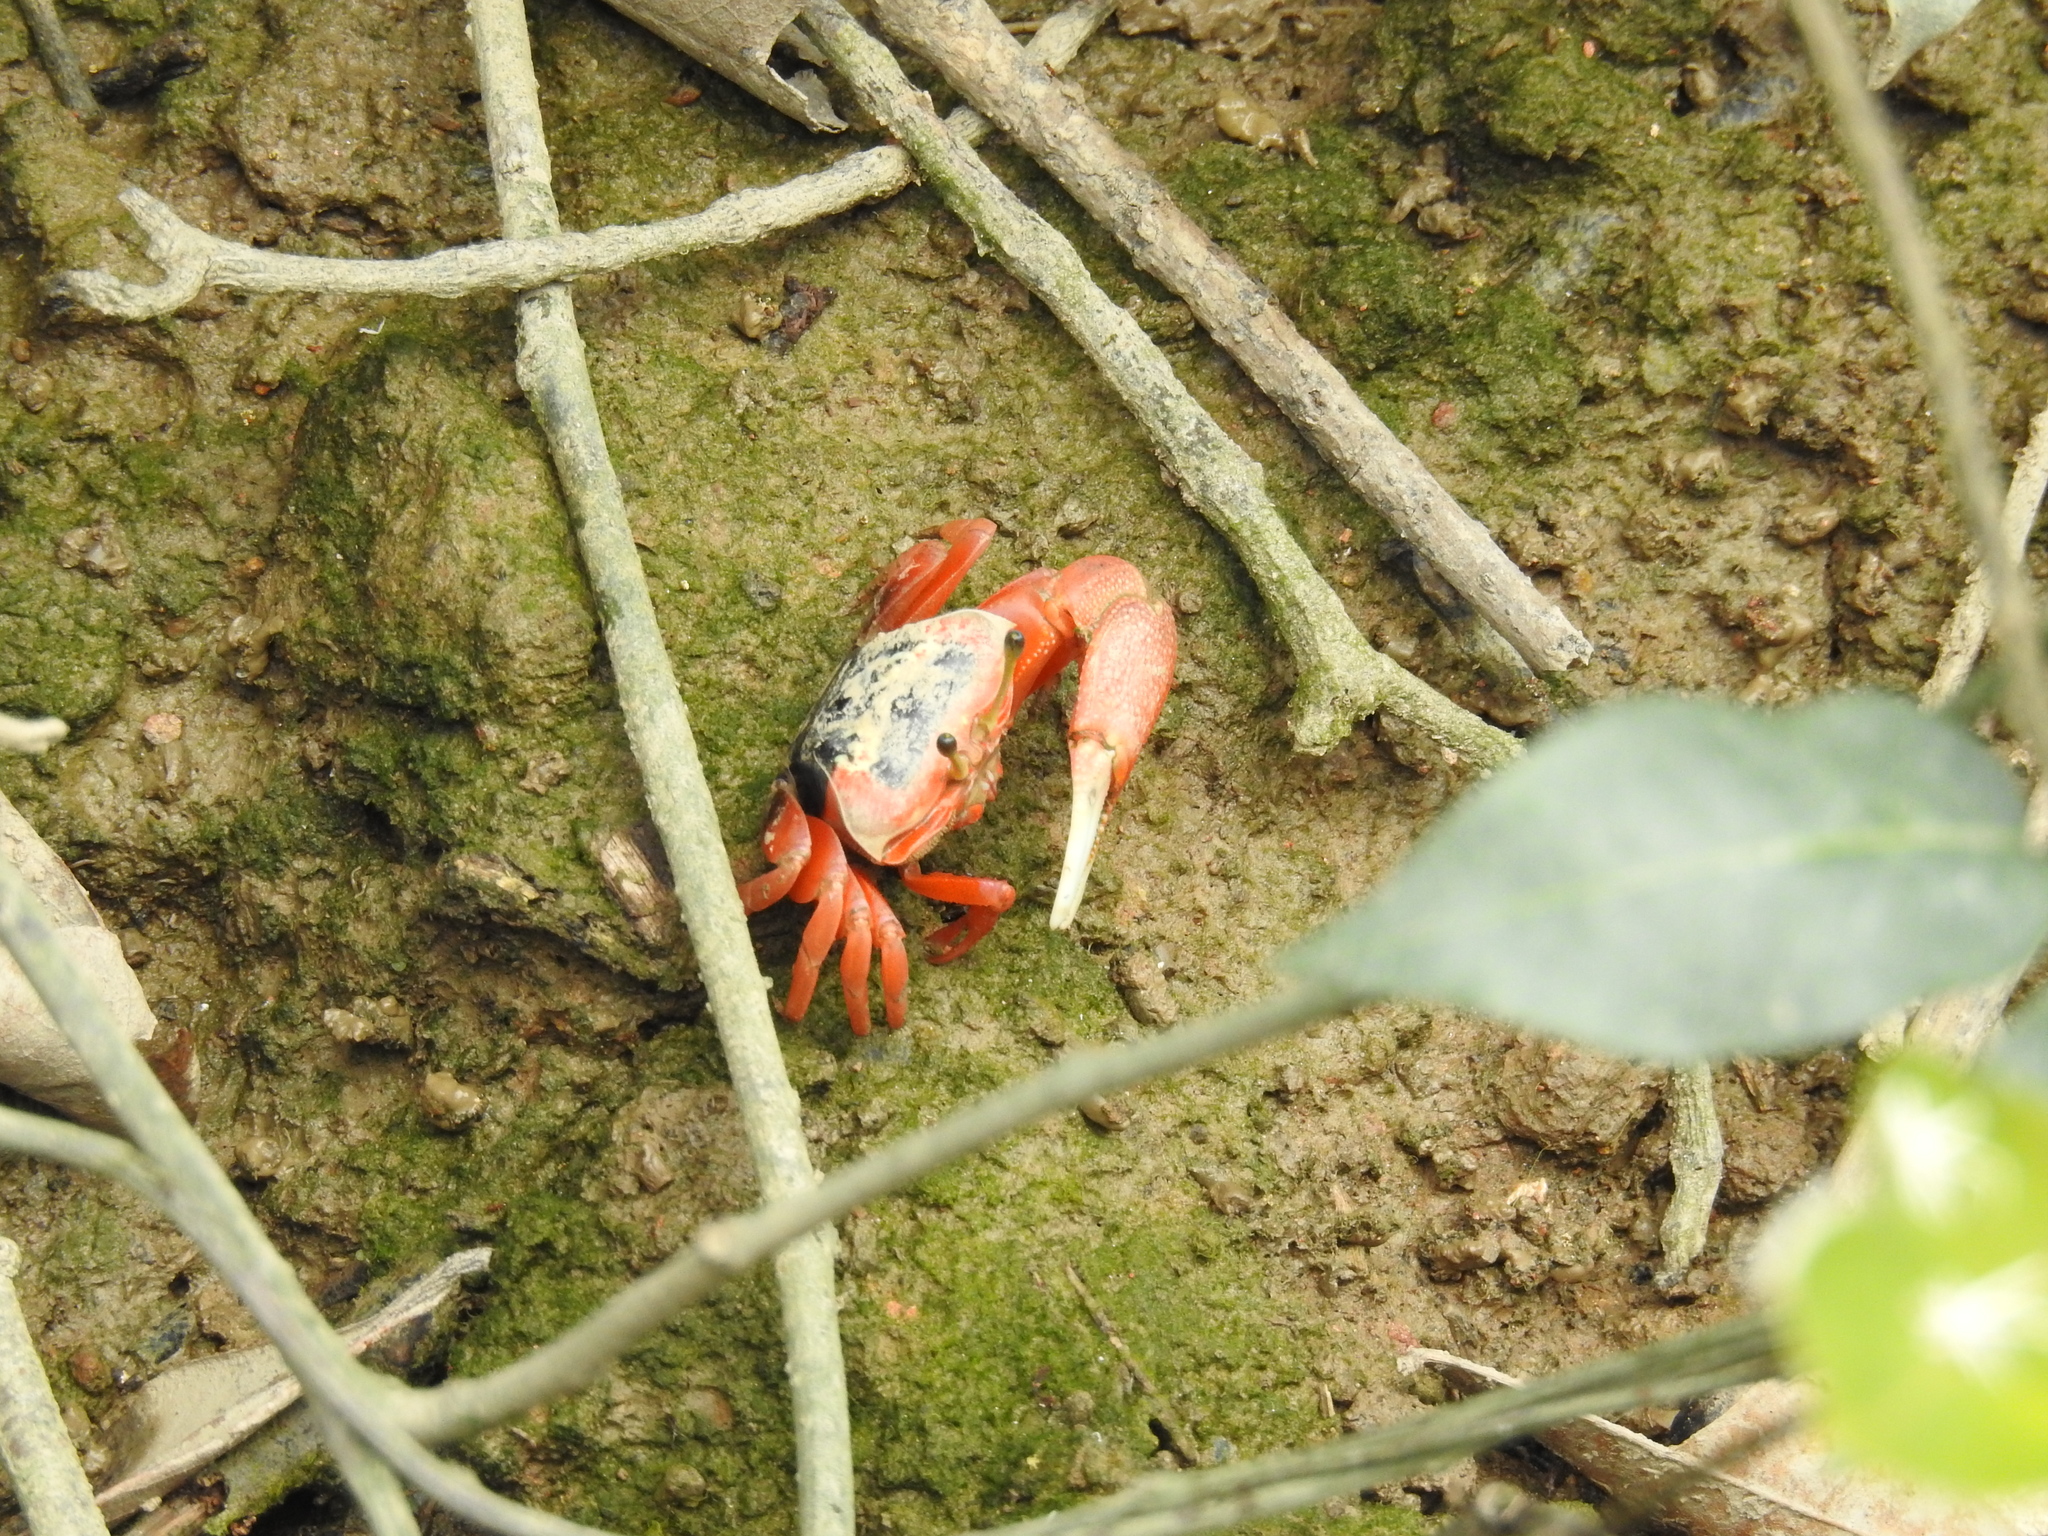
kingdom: Animalia
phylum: Arthropoda
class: Malacostraca
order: Decapoda
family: Ocypodidae
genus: Tubuca
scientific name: Tubuca arcuata
